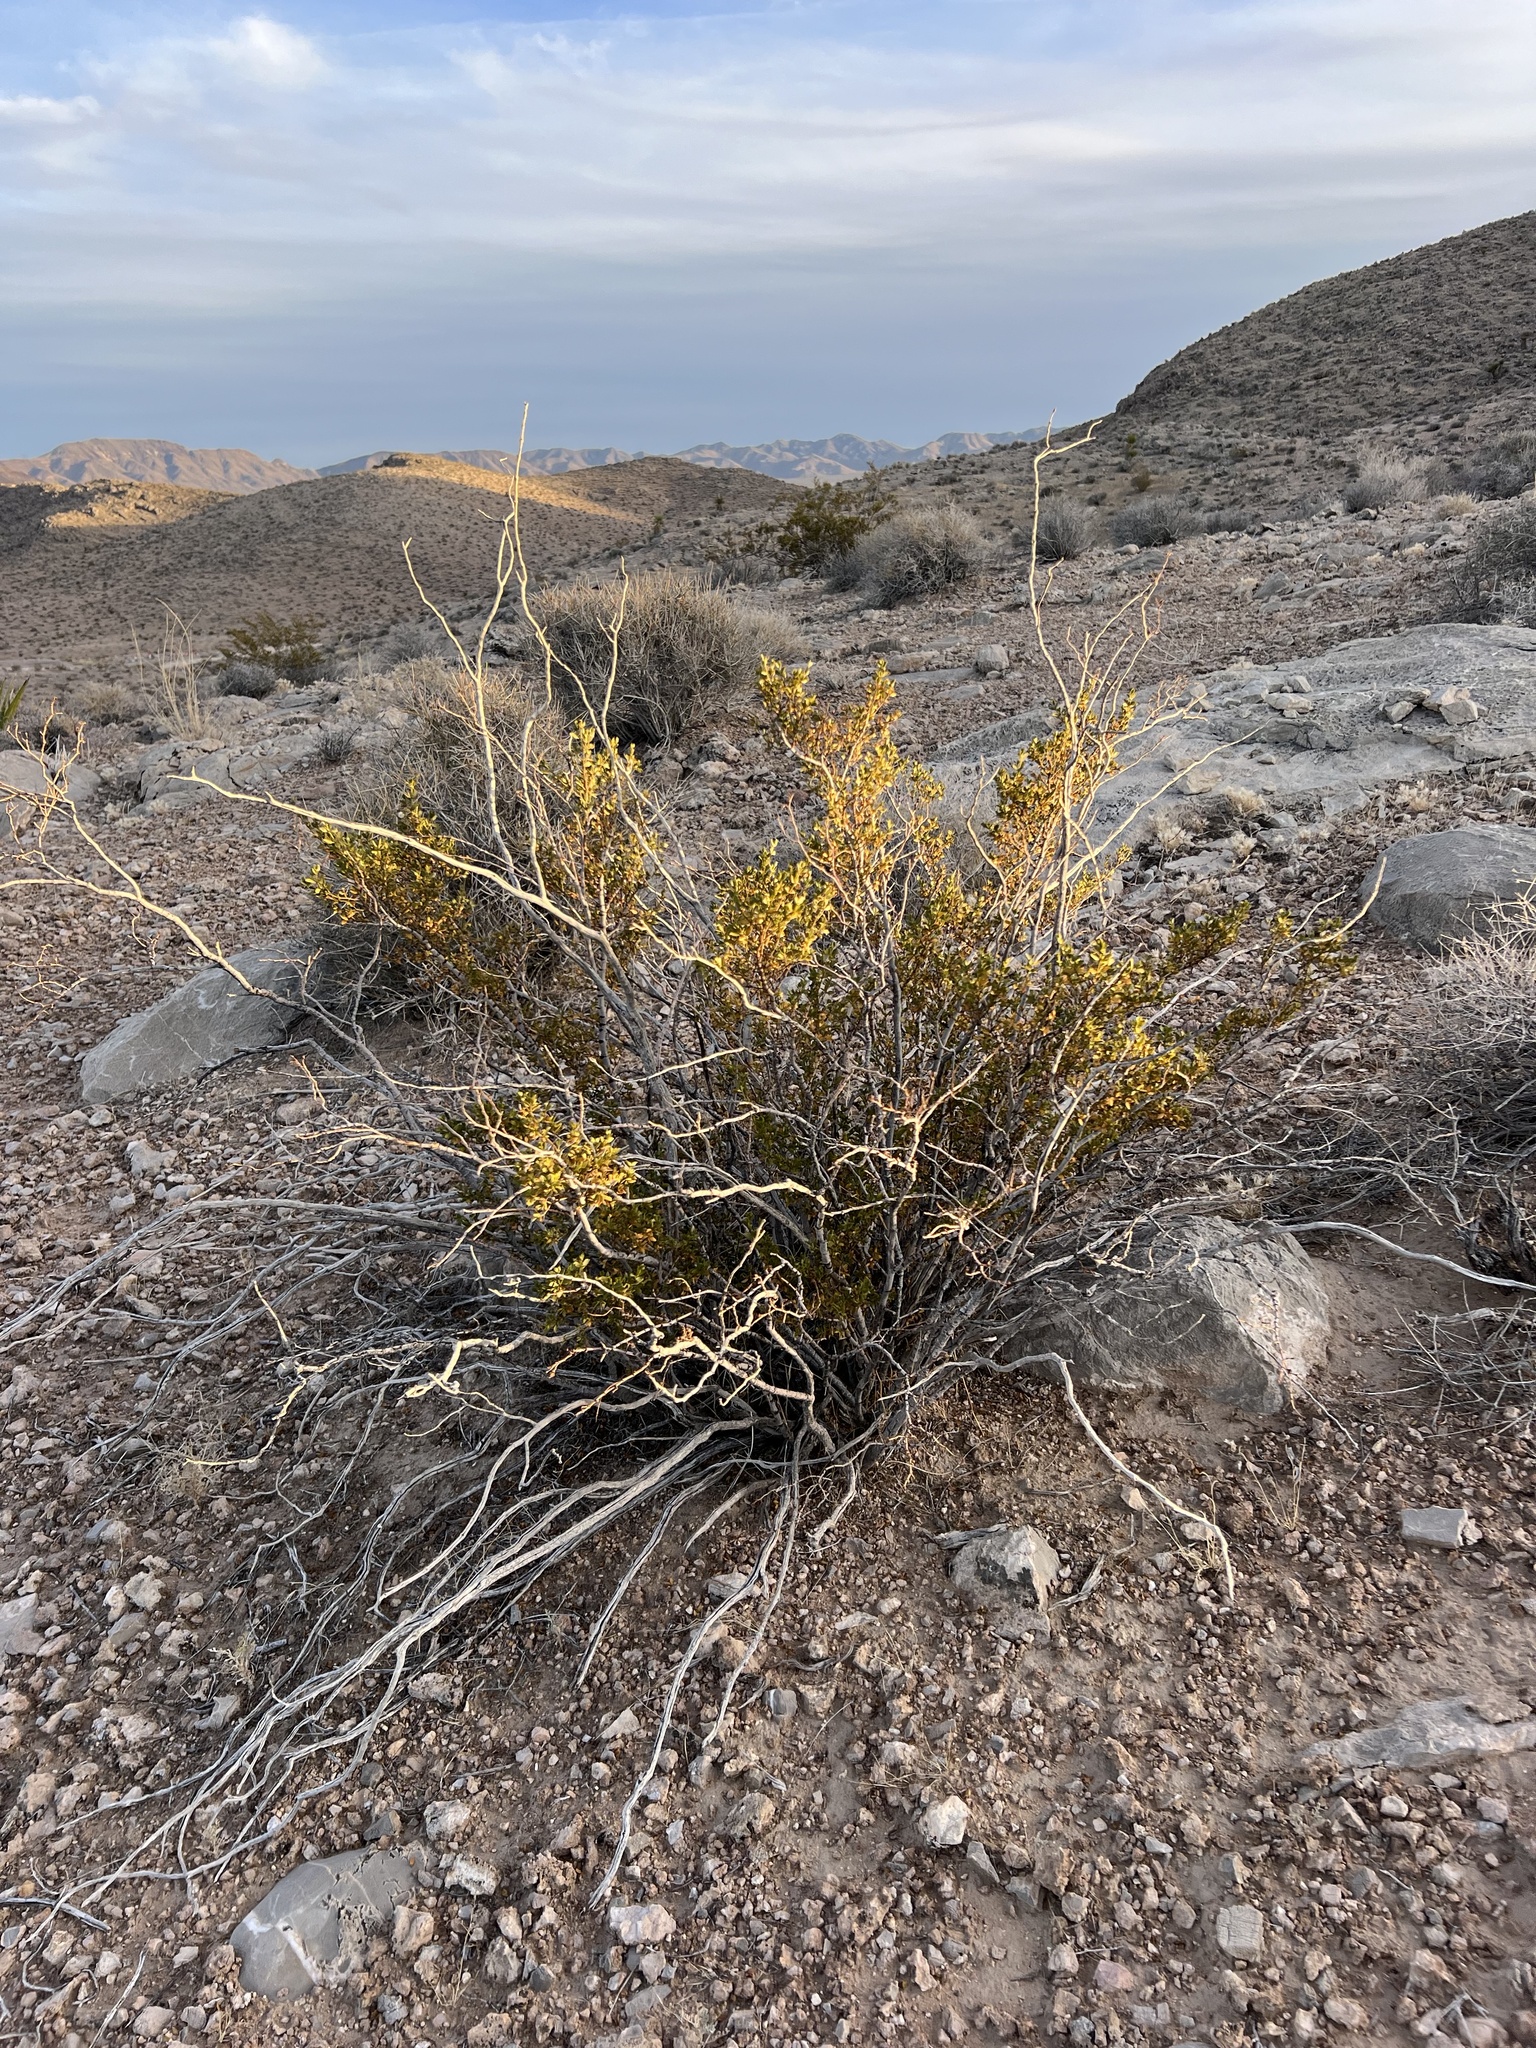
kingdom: Plantae
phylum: Tracheophyta
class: Magnoliopsida
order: Zygophyllales
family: Zygophyllaceae
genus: Larrea
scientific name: Larrea tridentata
